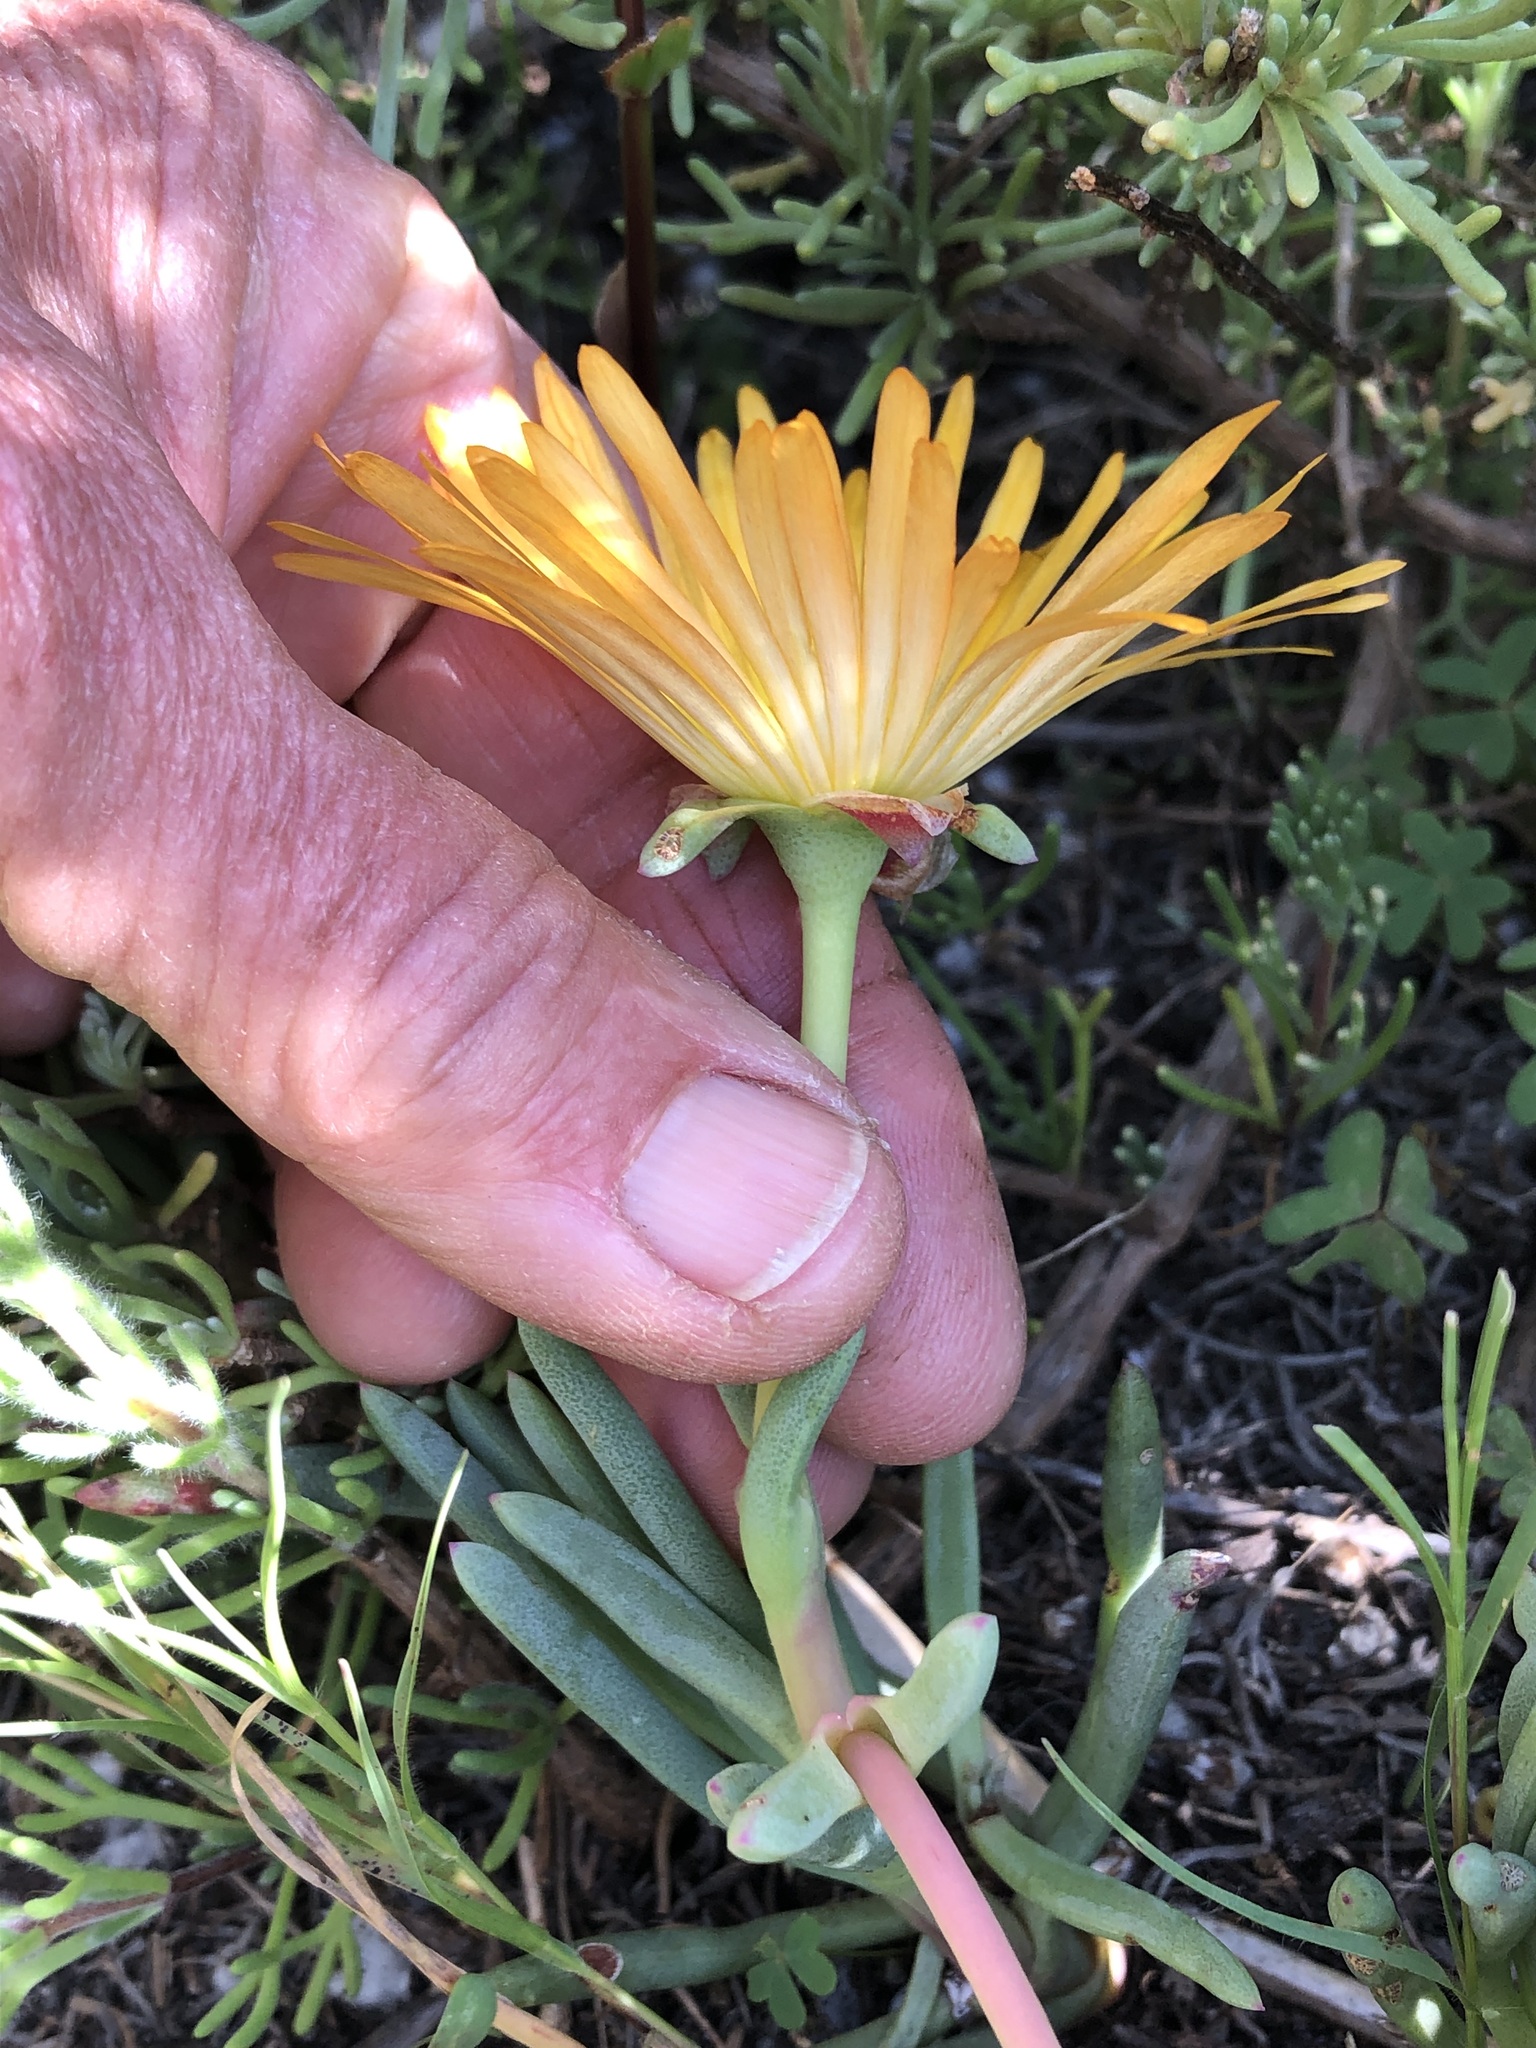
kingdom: Plantae
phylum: Tracheophyta
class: Magnoliopsida
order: Caryophyllales
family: Aizoaceae
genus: Jordaaniella
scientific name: Jordaaniella dubia
